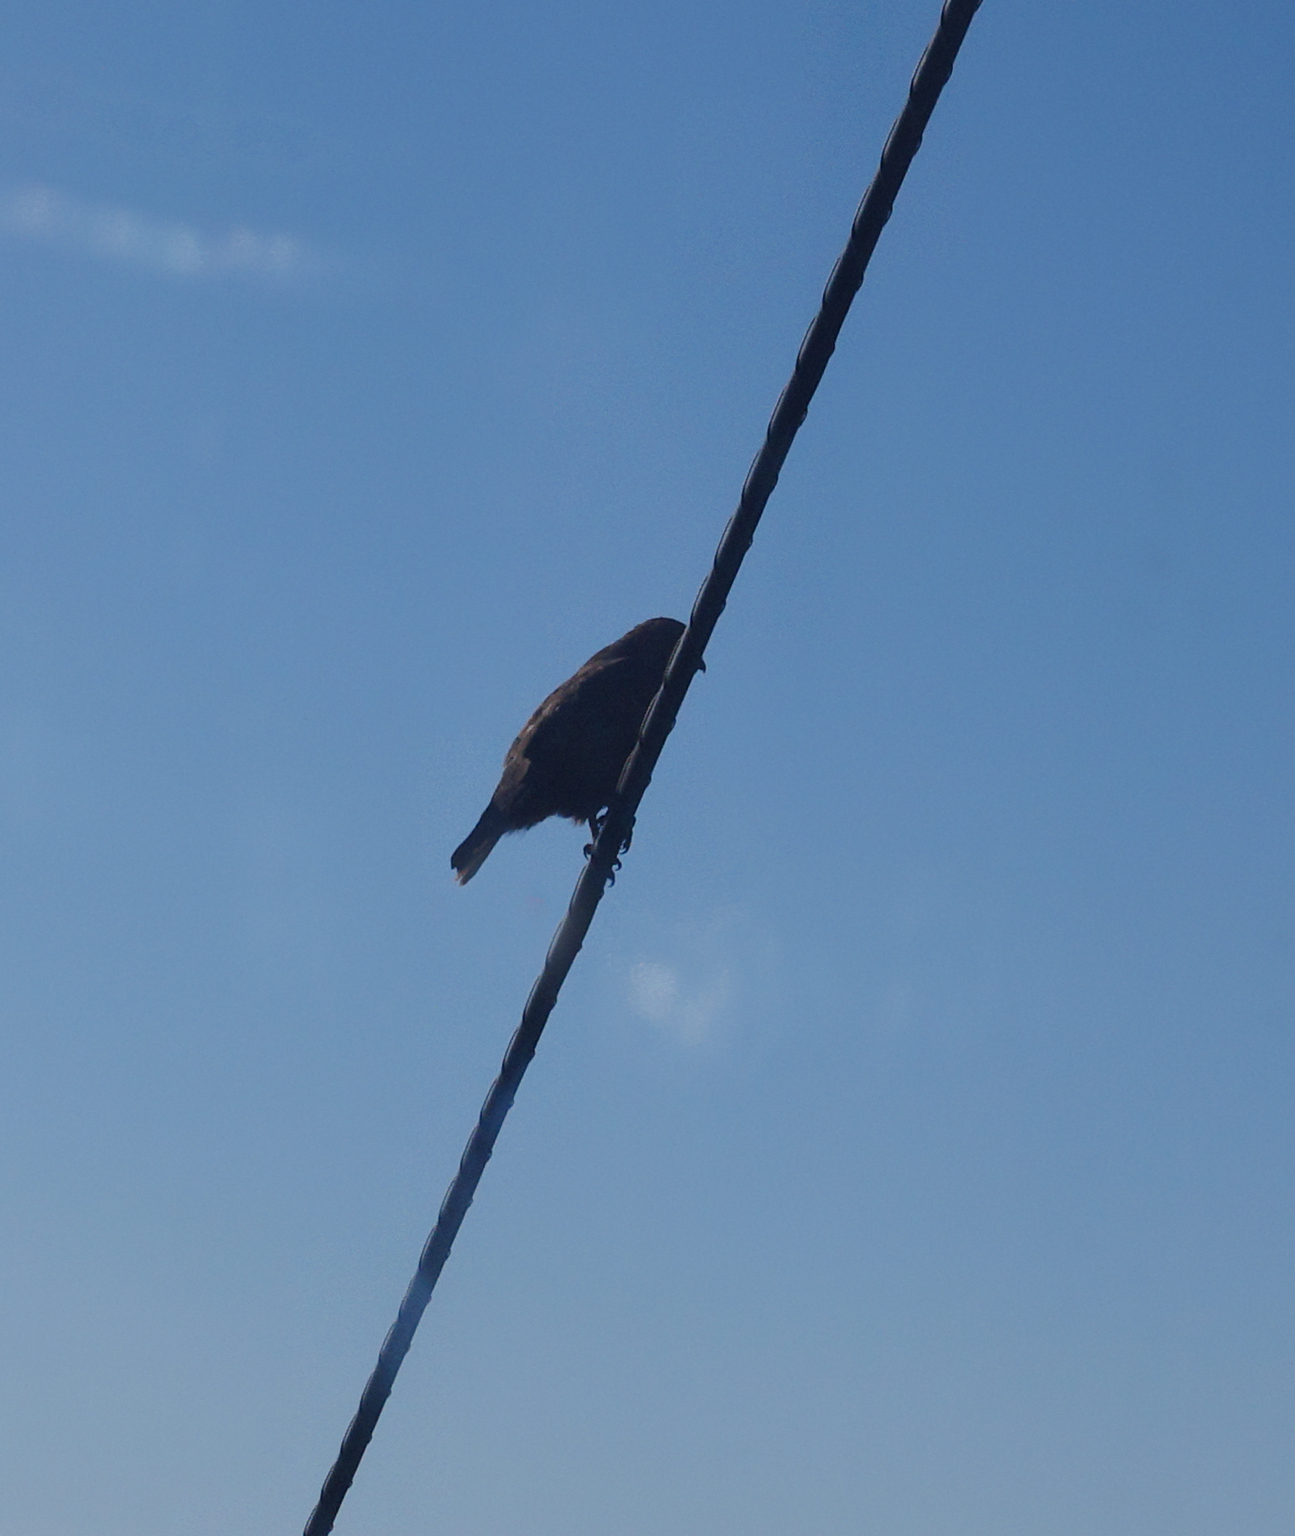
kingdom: Animalia
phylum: Chordata
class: Aves
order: Accipitriformes
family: Accipitridae
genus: Buteo
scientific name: Buteo buteo
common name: Common buzzard
